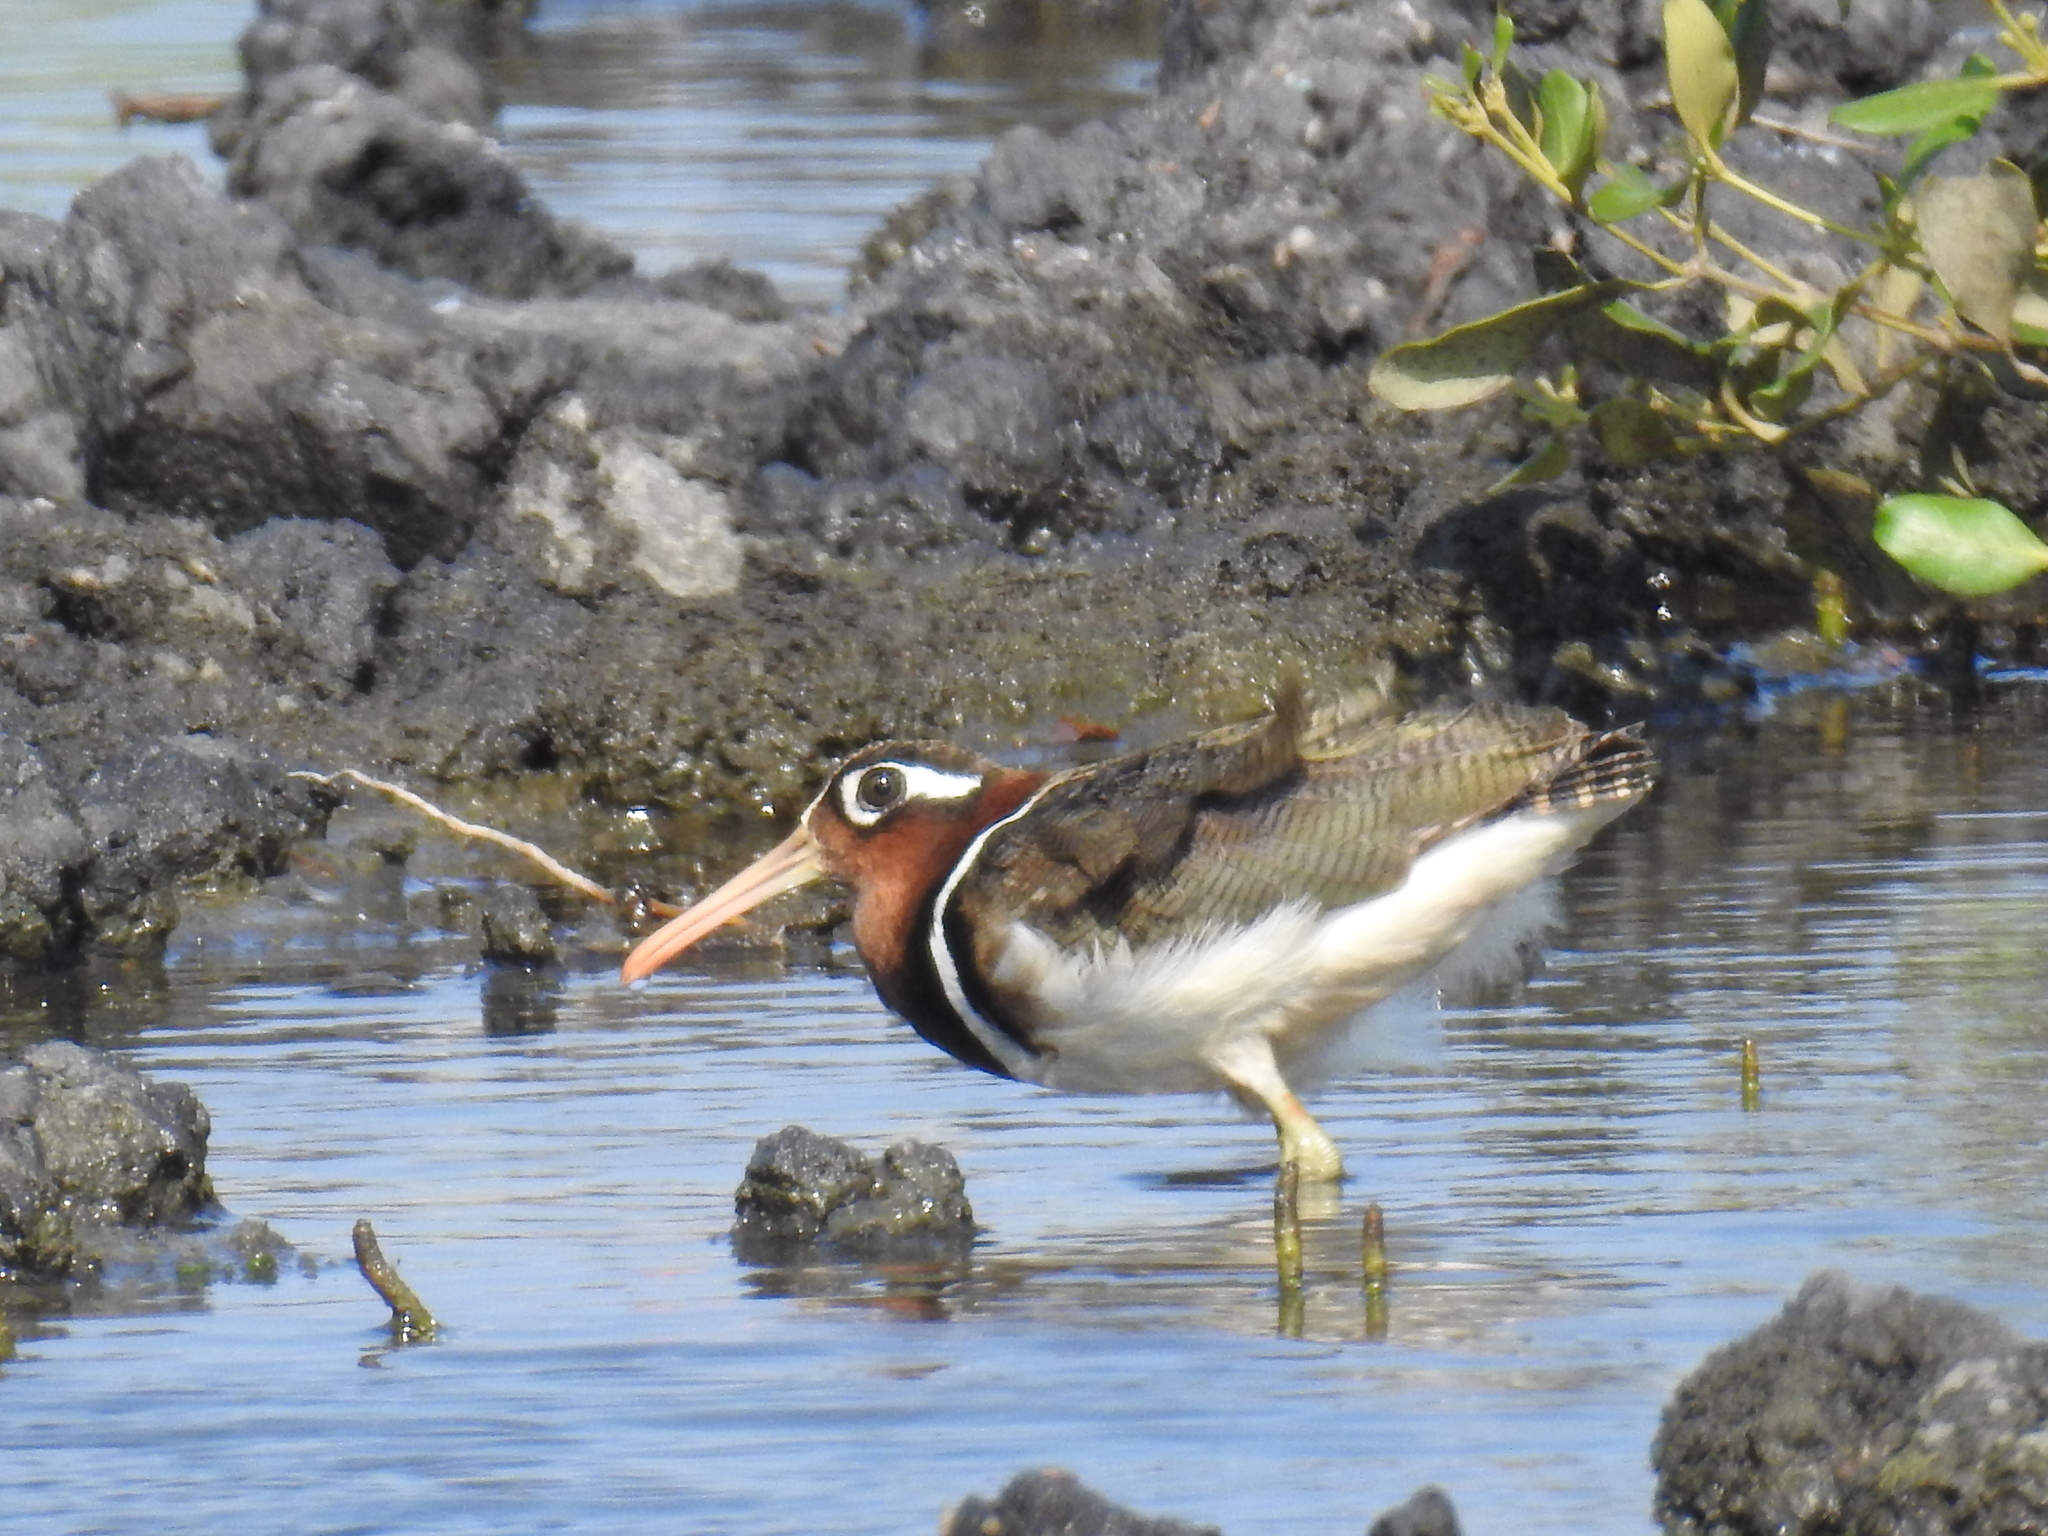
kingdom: Animalia
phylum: Chordata
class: Aves
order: Charadriiformes
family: Rostratulidae
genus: Rostratula
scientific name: Rostratula benghalensis
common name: Greater painted-snipe
